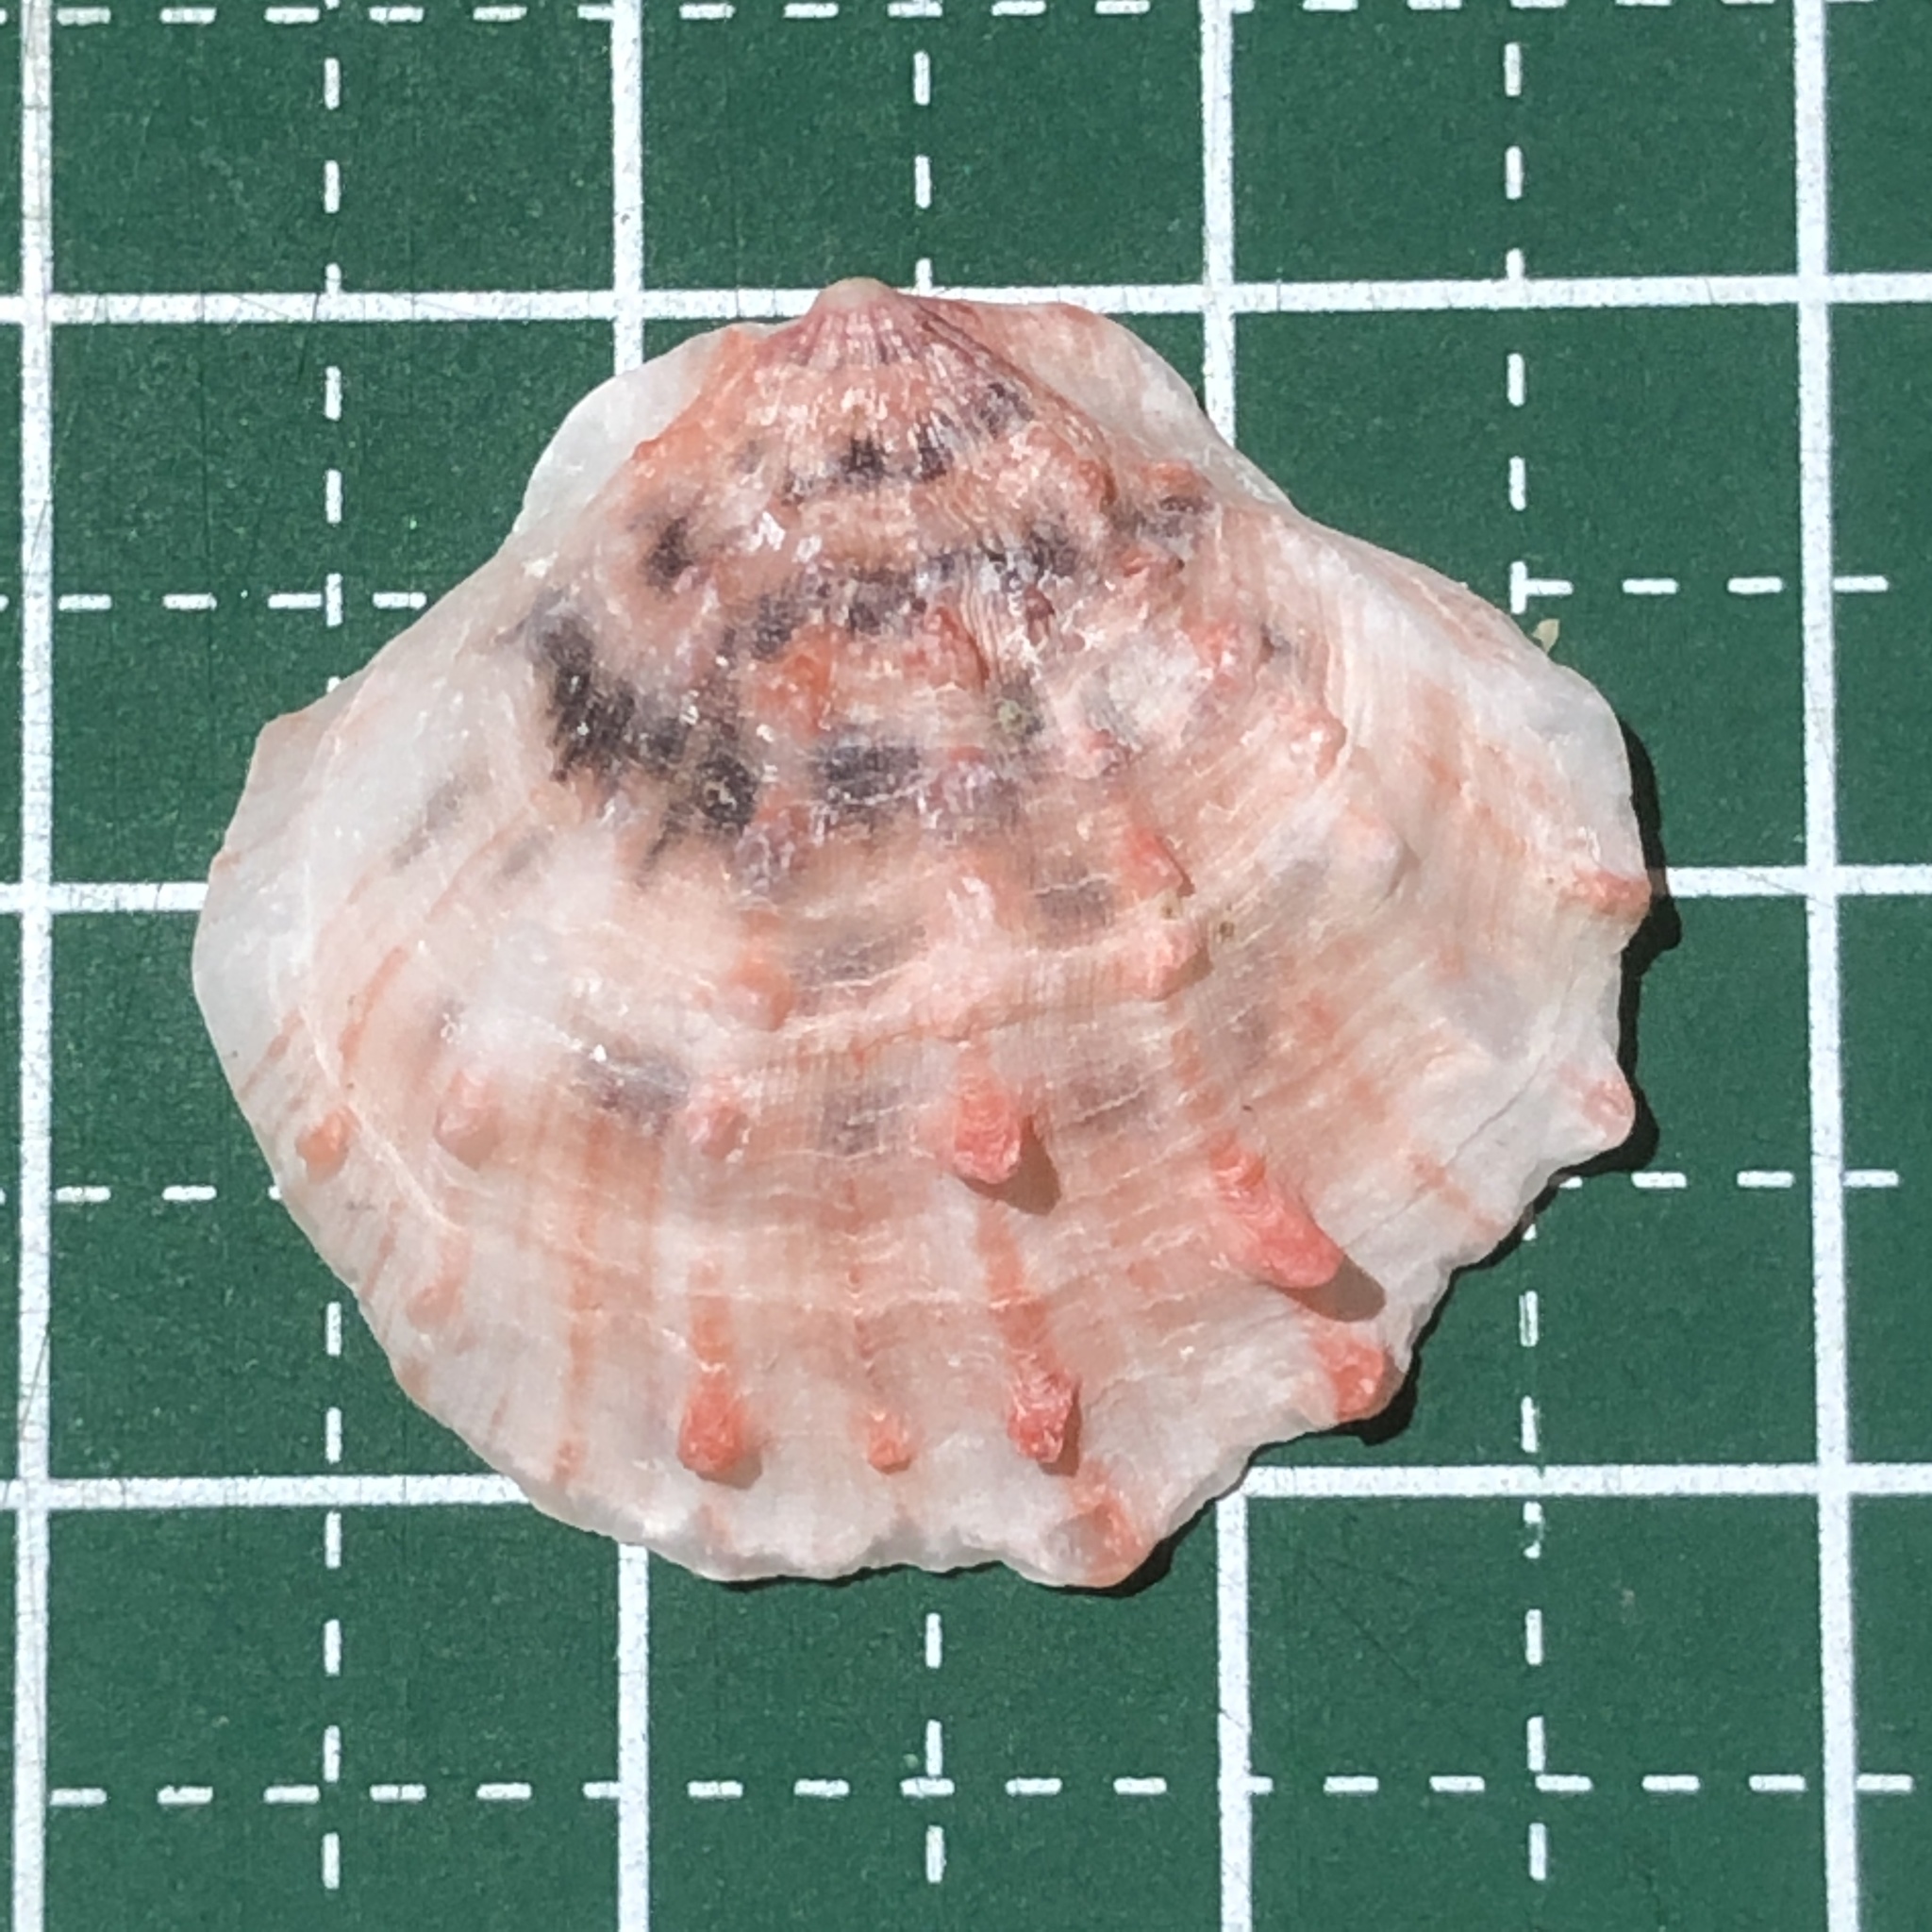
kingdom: Animalia
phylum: Mollusca
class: Bivalvia
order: Pectinida
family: Spondylidae
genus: Spondylus
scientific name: Spondylus squamosus
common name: Scaly thorny oyster
